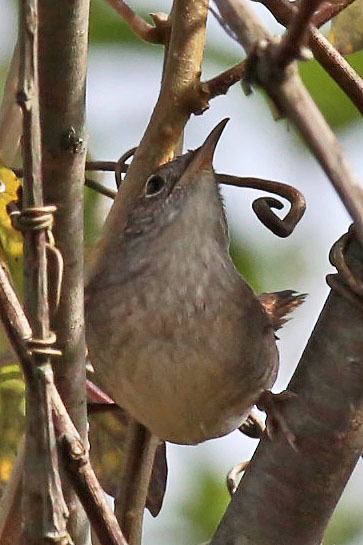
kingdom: Animalia
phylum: Chordata
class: Aves
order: Passeriformes
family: Troglodytidae
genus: Troglodytes
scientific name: Troglodytes aedon
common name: House wren
